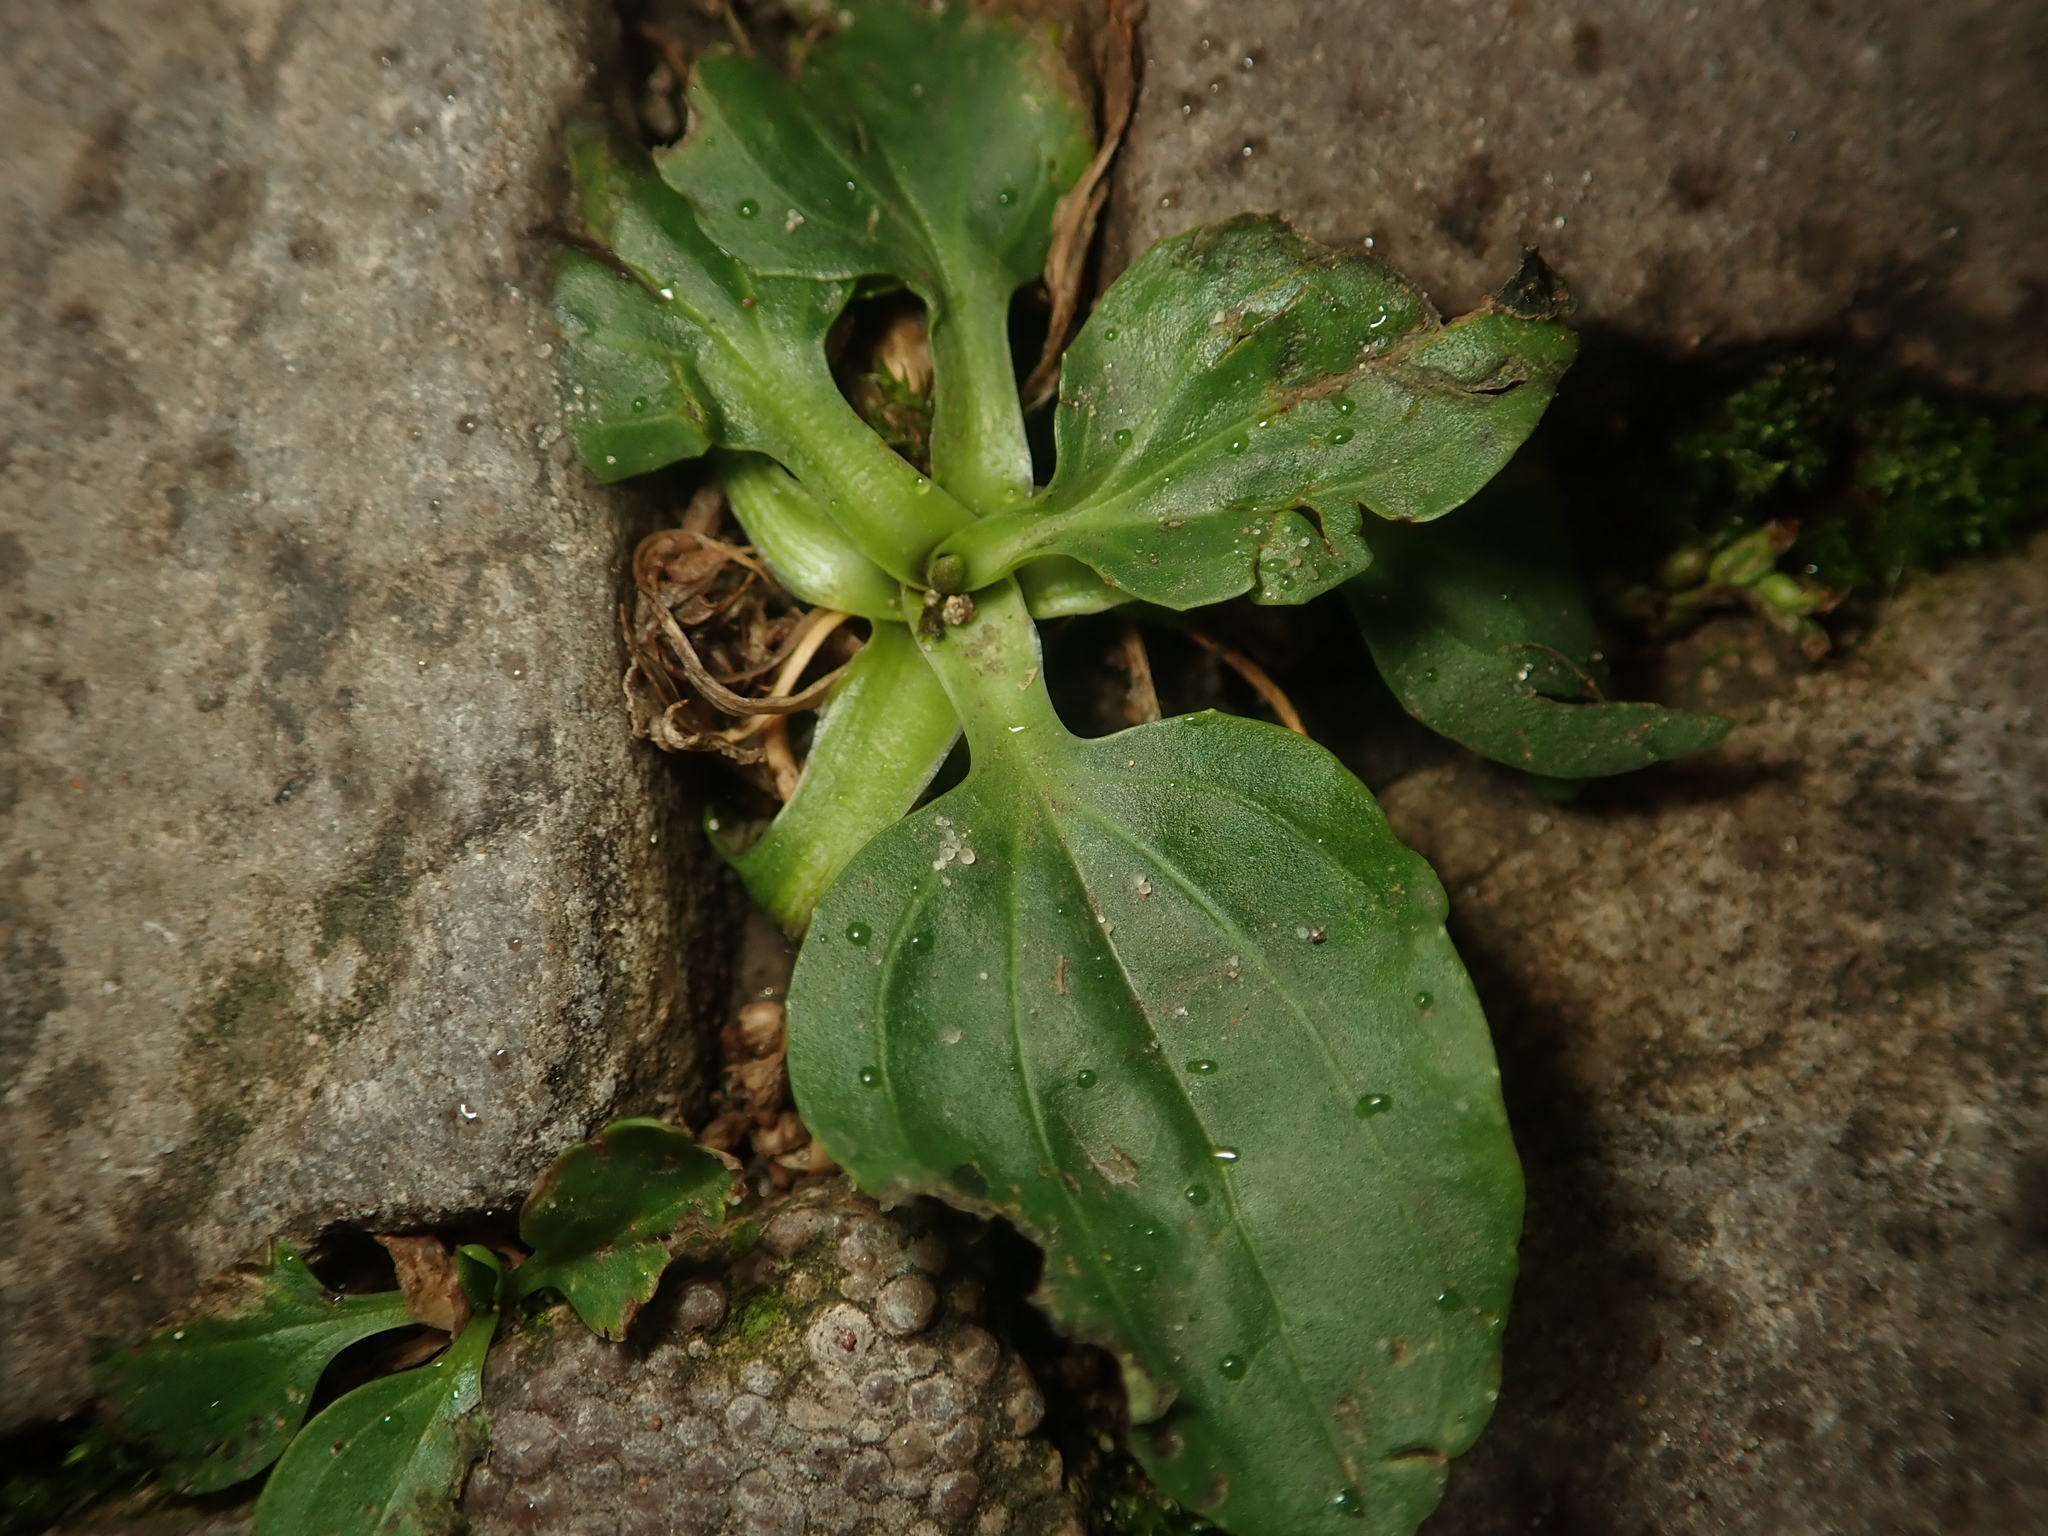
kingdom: Plantae
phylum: Tracheophyta
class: Magnoliopsida
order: Lamiales
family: Plantaginaceae
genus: Plantago
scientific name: Plantago major
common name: Common plantain
